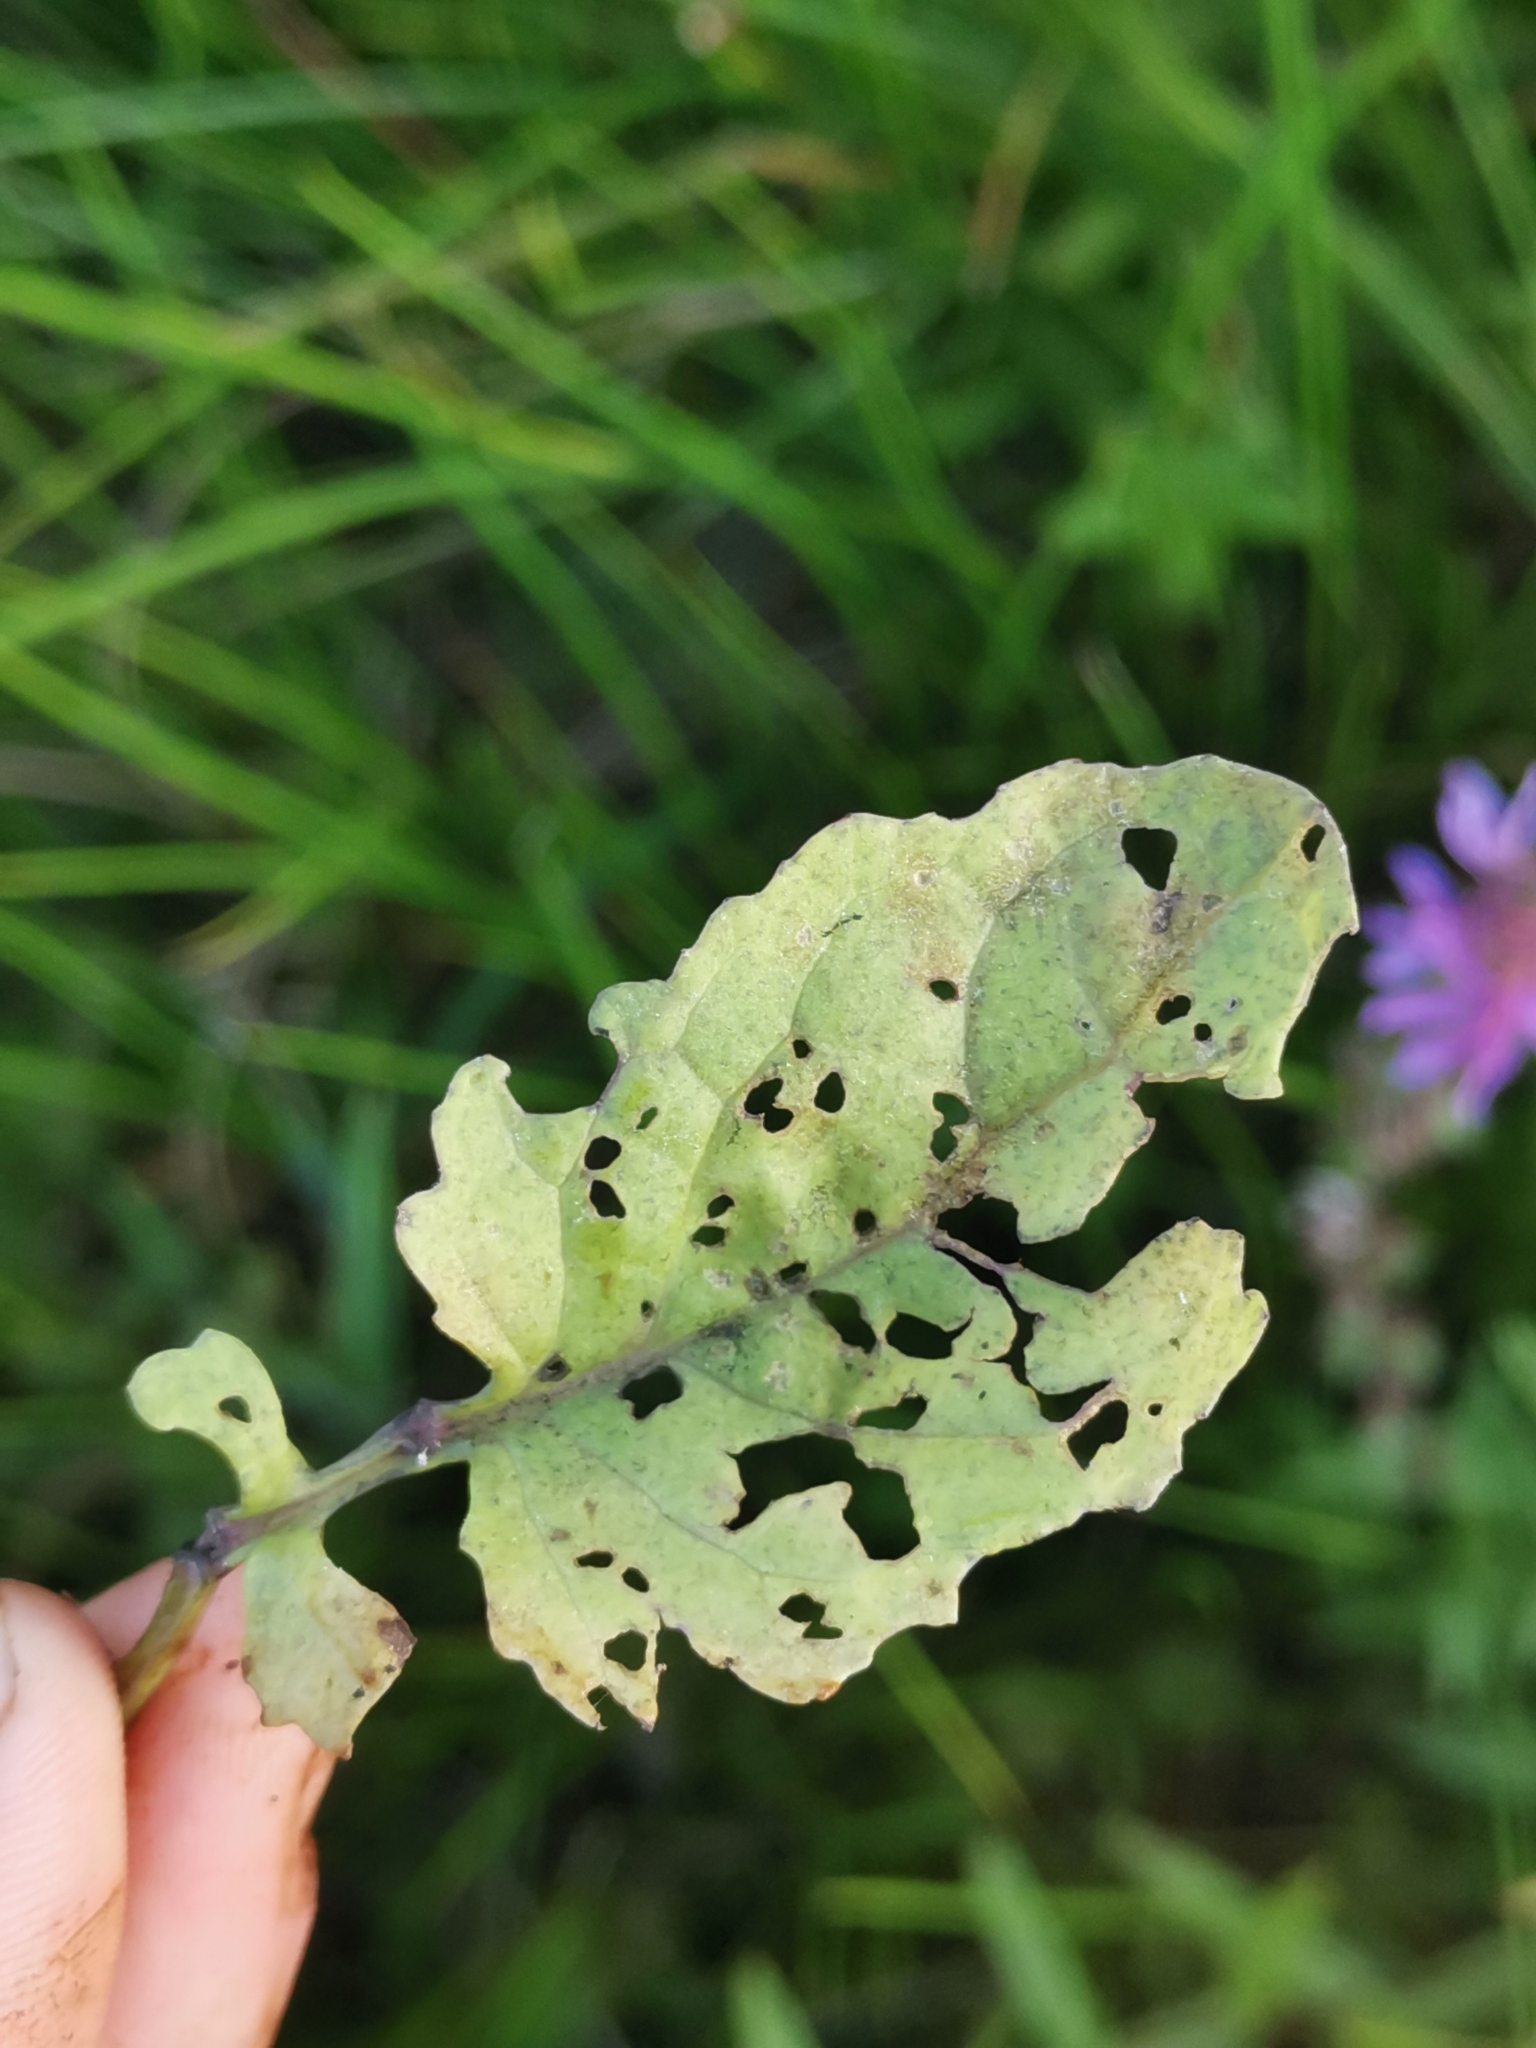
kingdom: Plantae
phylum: Tracheophyta
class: Magnoliopsida
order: Asterales
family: Asteraceae
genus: Jacobaea
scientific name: Jacobaea erratica
